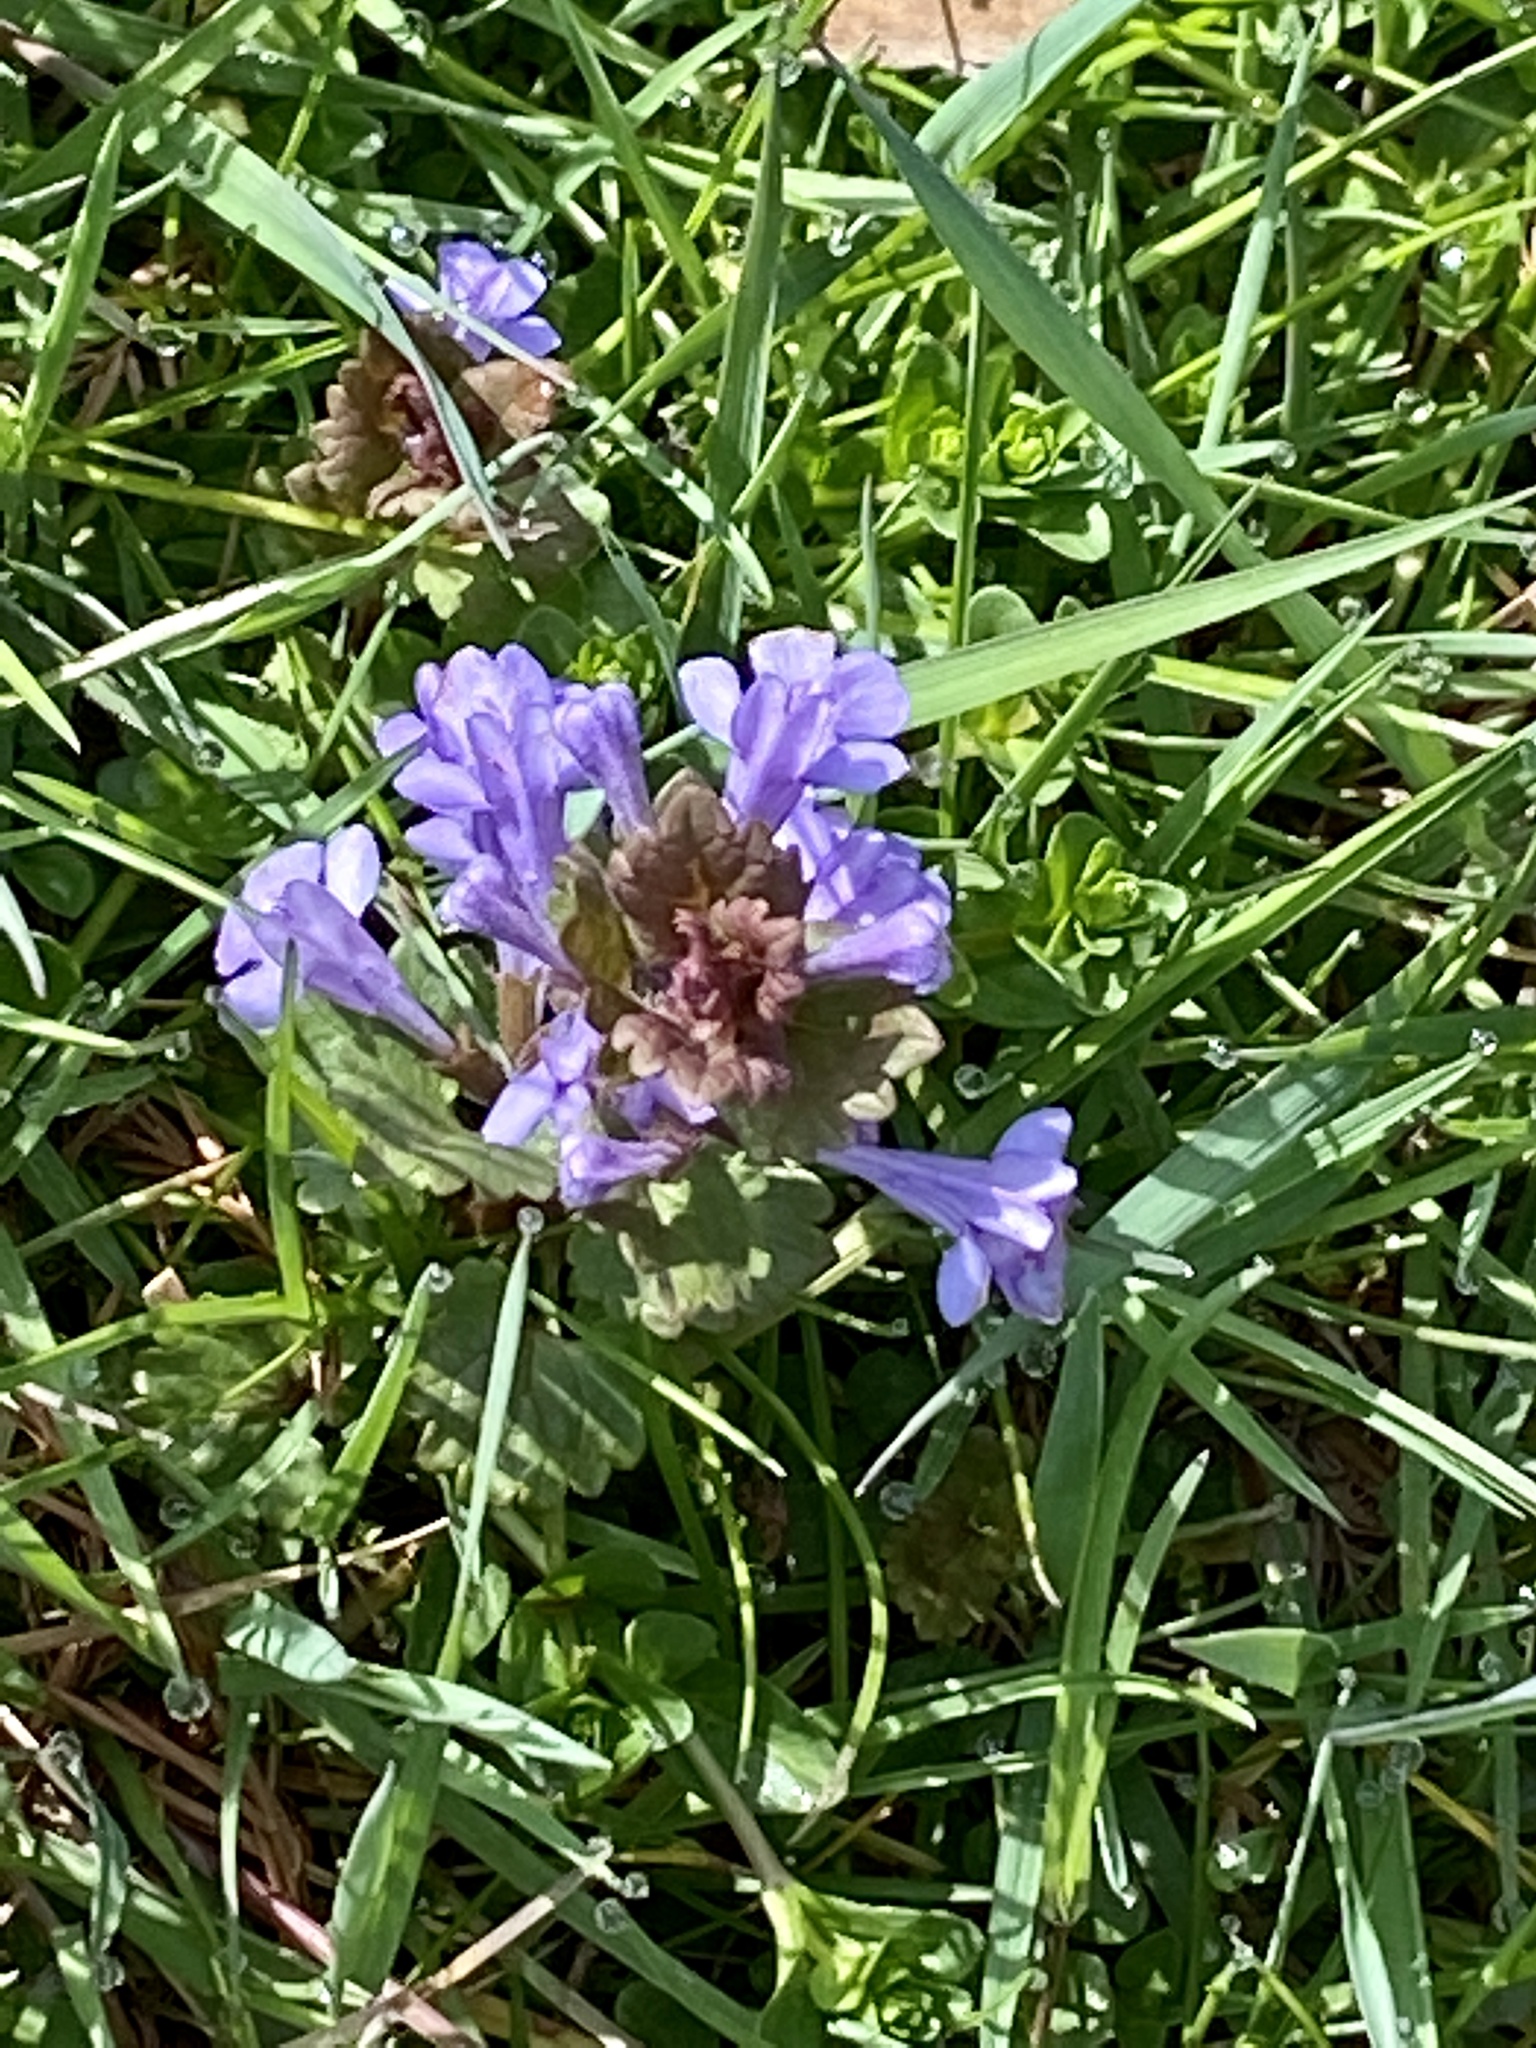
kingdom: Plantae
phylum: Tracheophyta
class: Magnoliopsida
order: Lamiales
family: Lamiaceae
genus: Glechoma
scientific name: Glechoma hederacea
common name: Ground ivy
